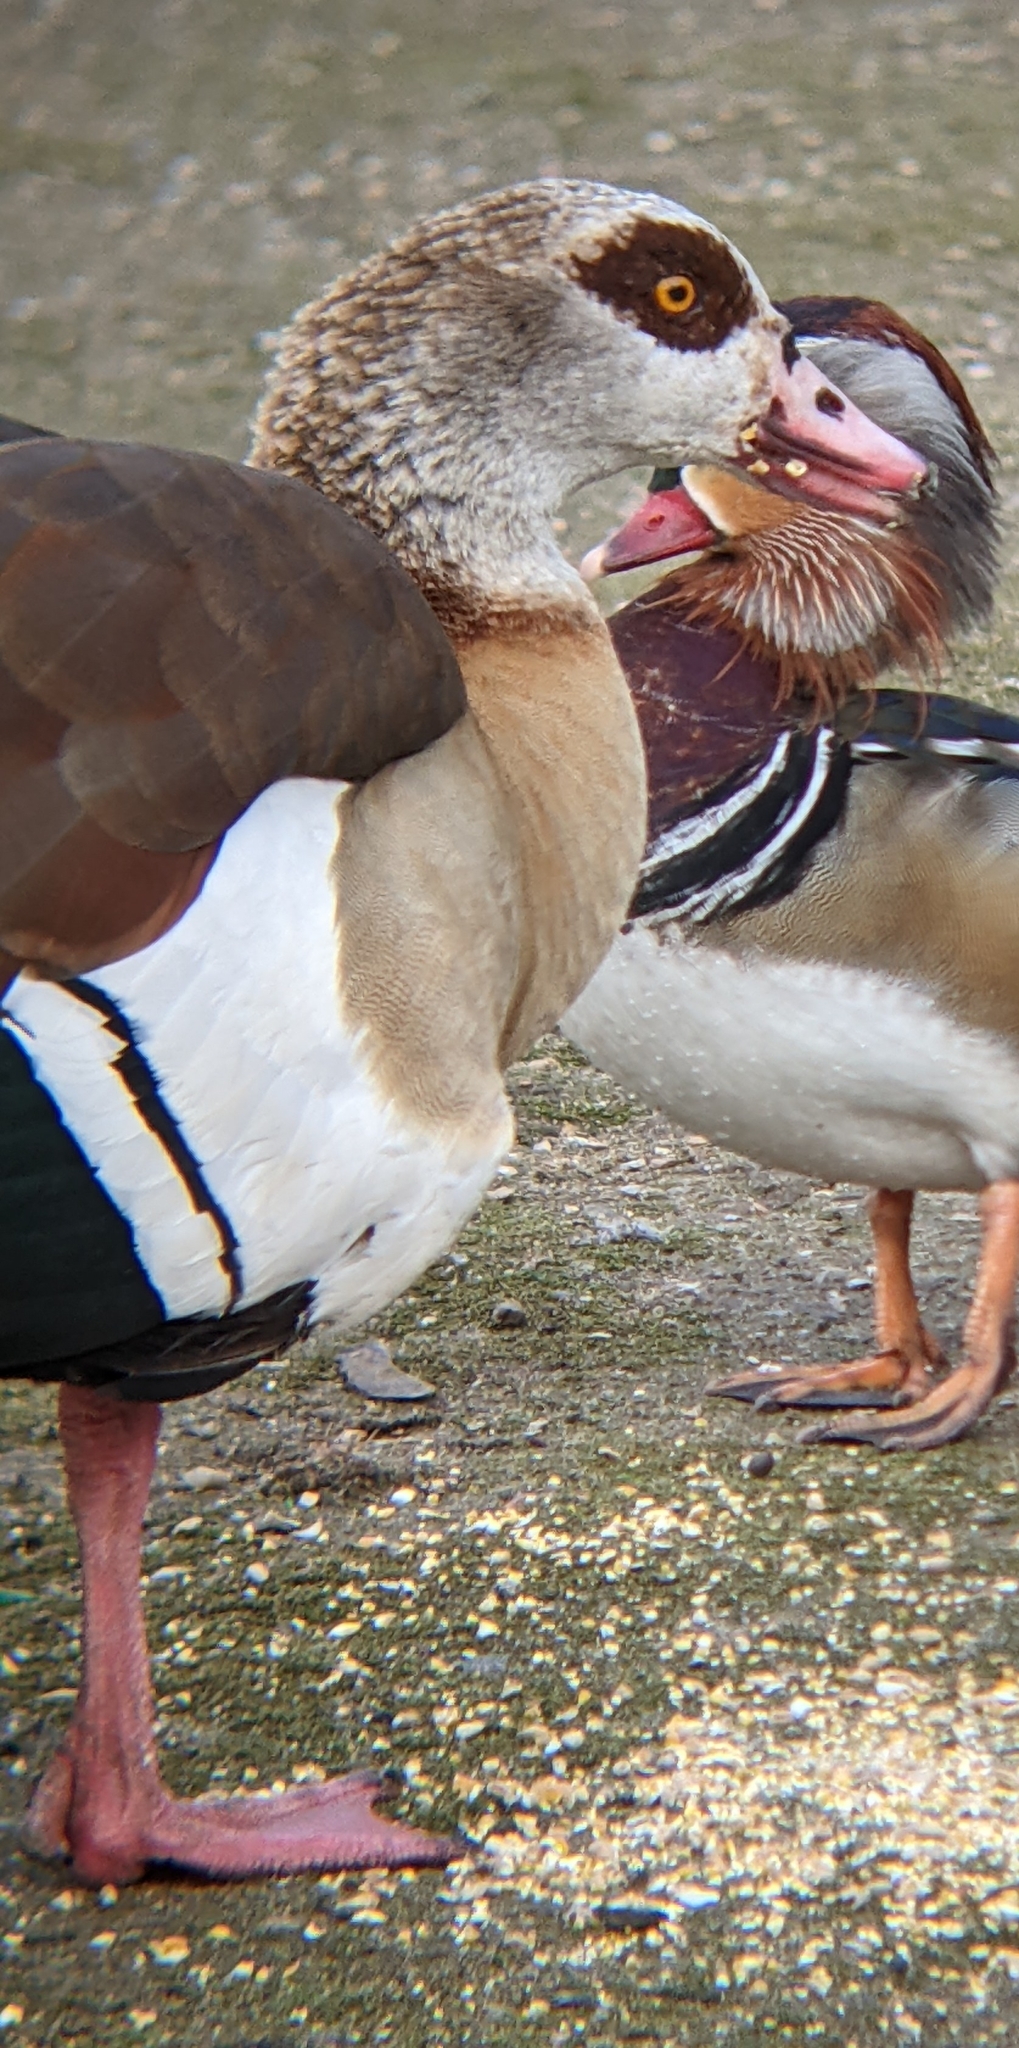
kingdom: Animalia
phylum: Chordata
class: Aves
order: Anseriformes
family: Anatidae
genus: Alopochen
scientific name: Alopochen aegyptiaca
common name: Egyptian goose
